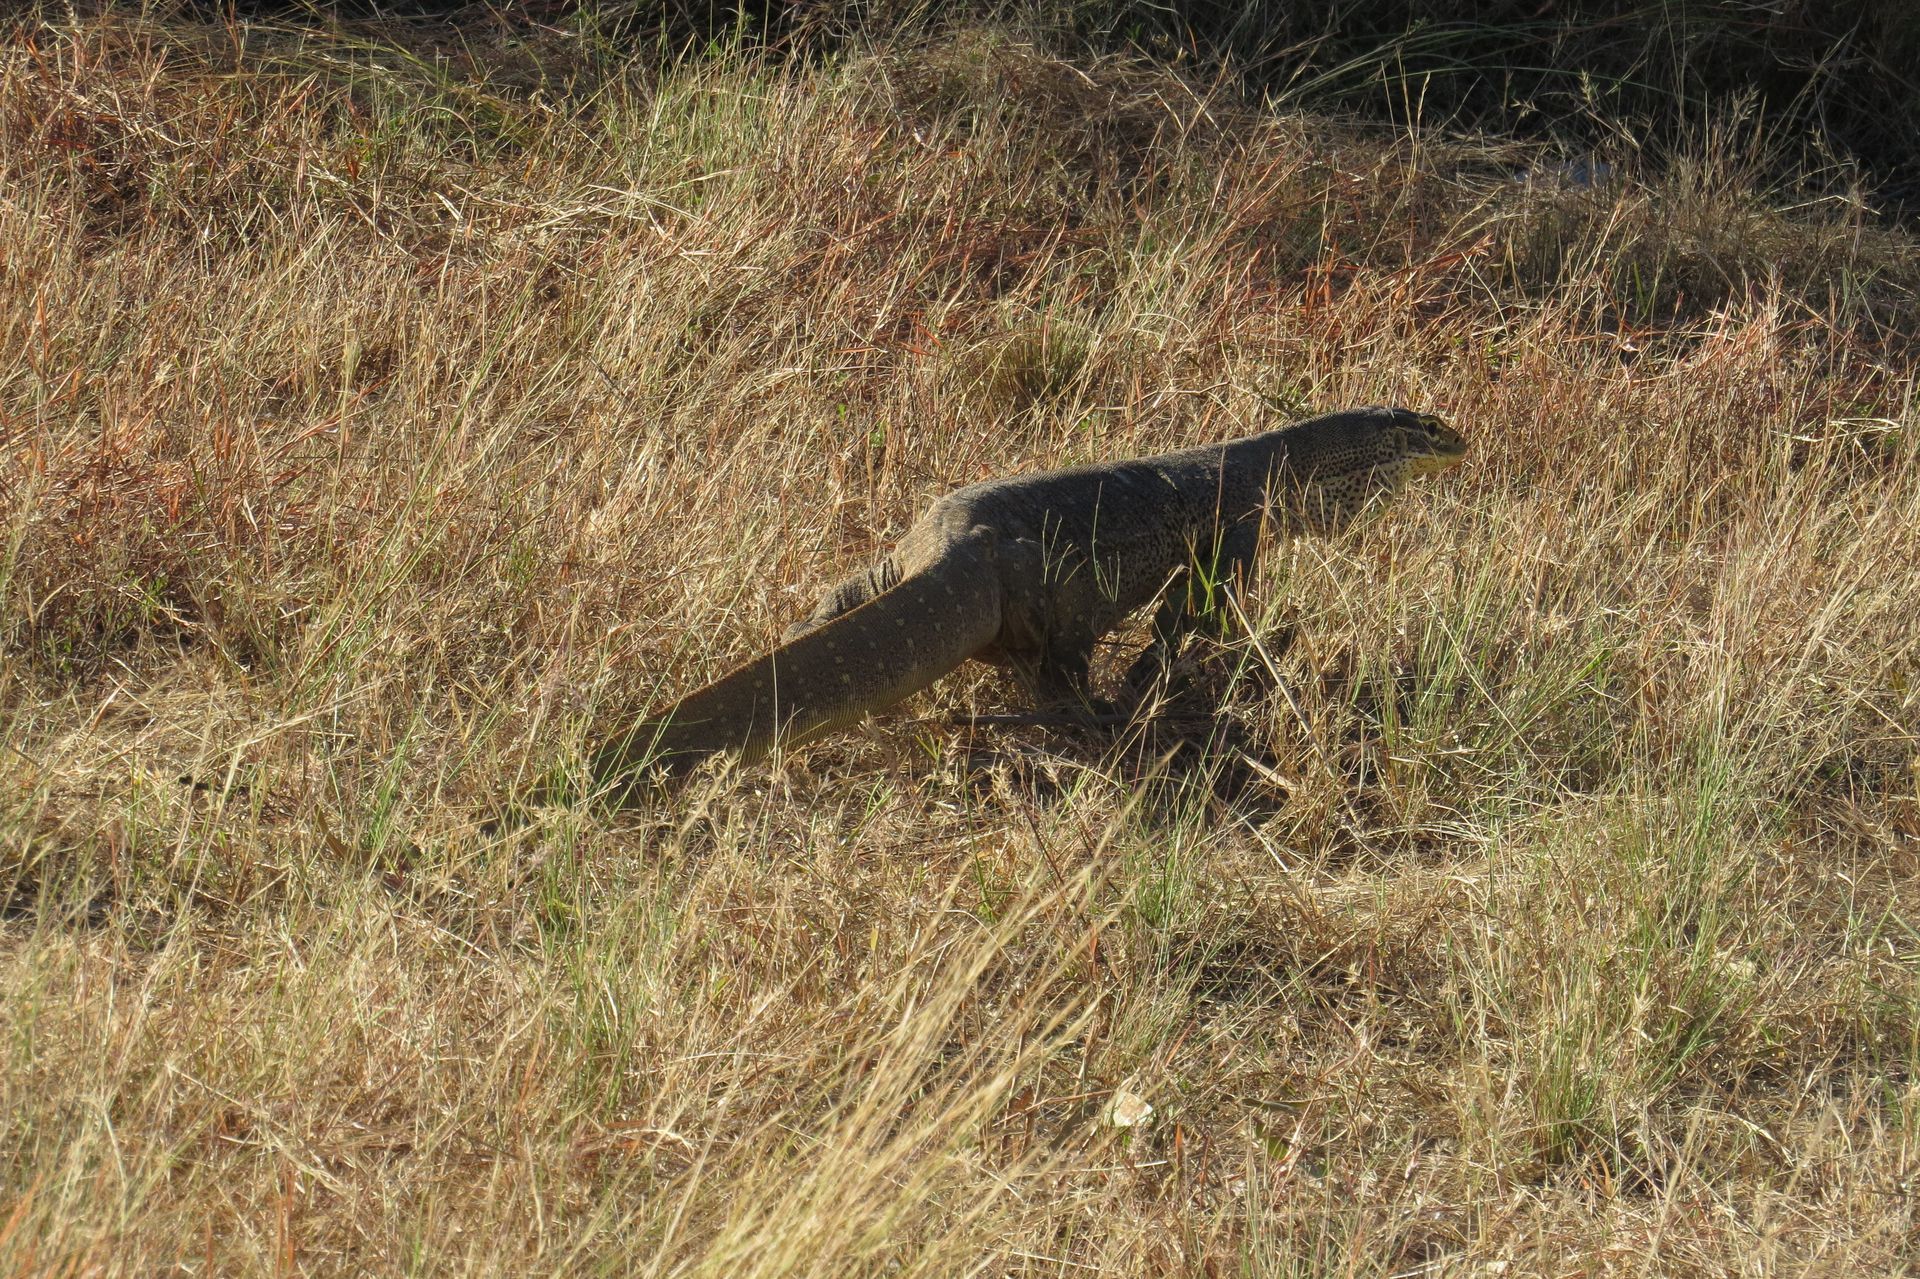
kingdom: Animalia
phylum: Chordata
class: Squamata
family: Varanidae
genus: Varanus
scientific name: Varanus panoptes
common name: Yellow-spotted monitor
